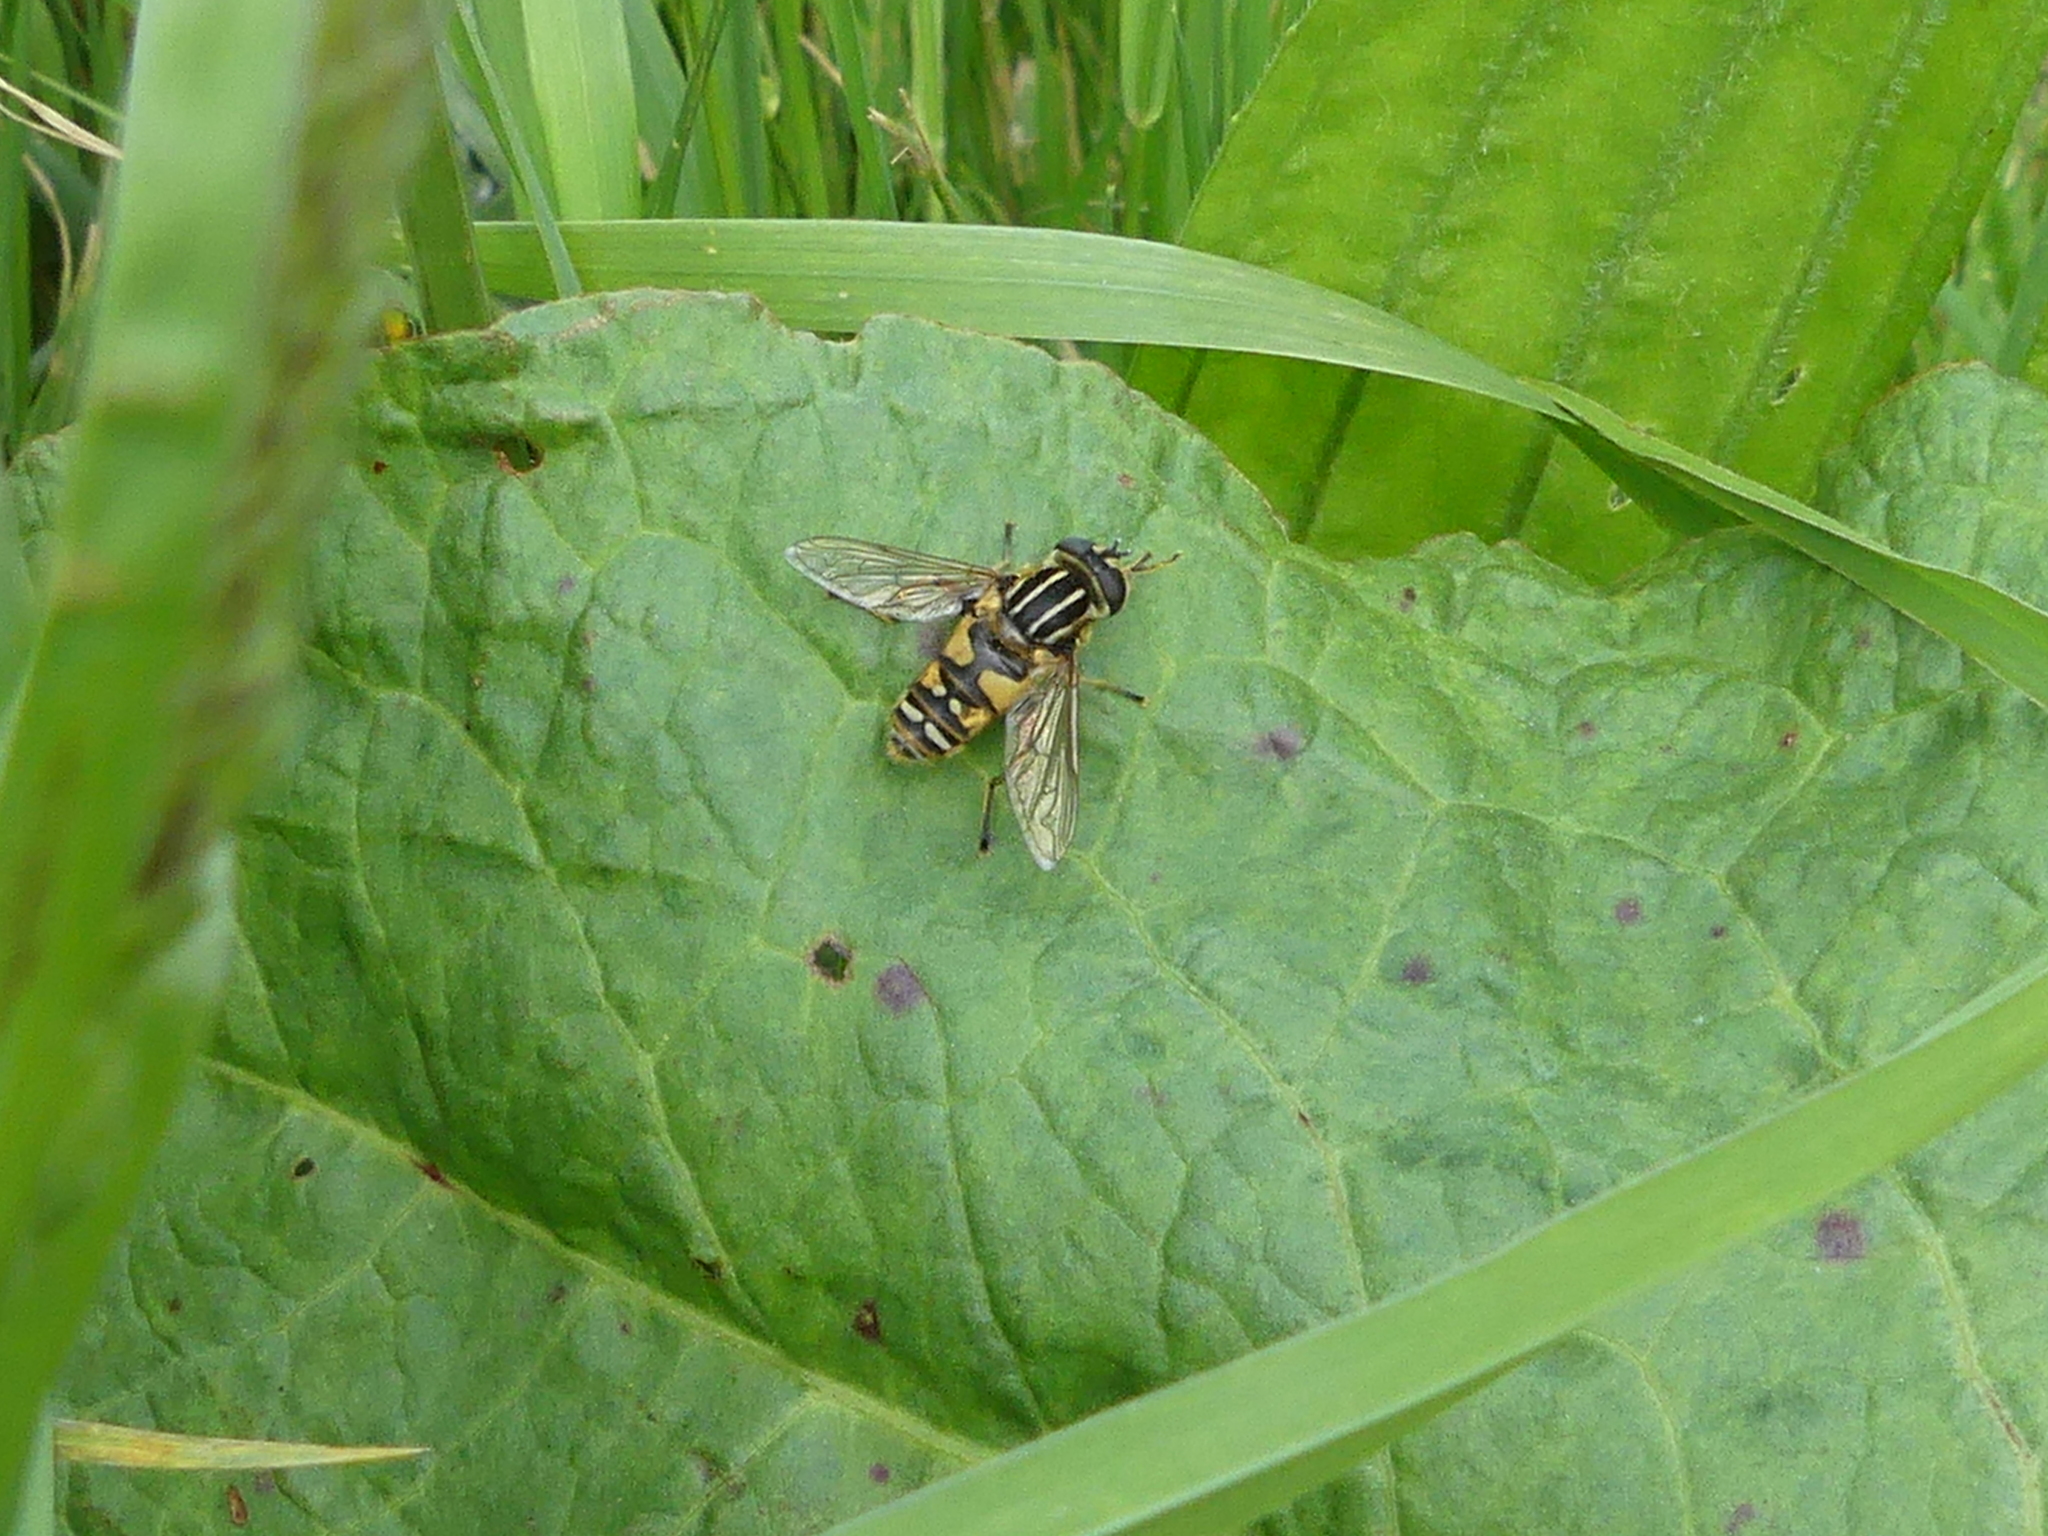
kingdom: Animalia
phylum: Arthropoda
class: Insecta
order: Diptera
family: Syrphidae
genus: Helophilus
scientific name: Helophilus pendulus
